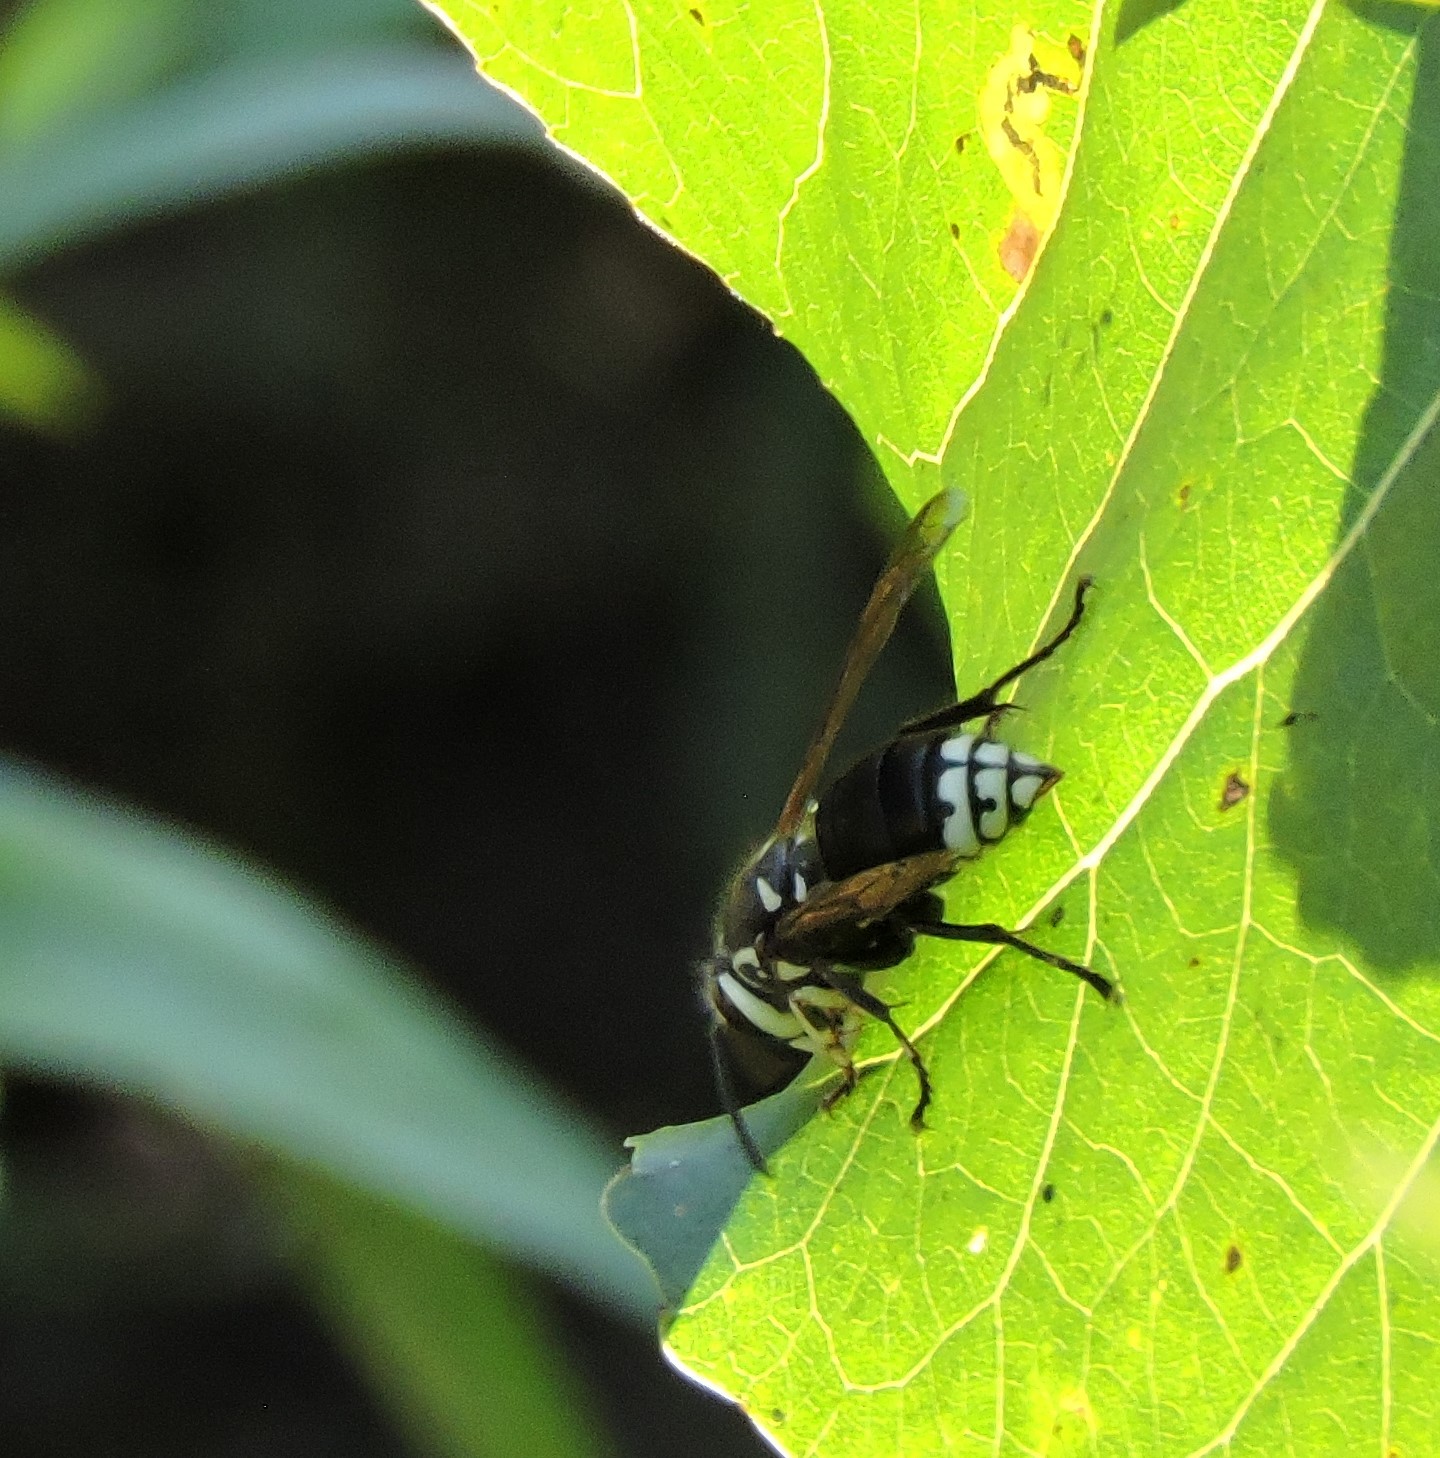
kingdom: Animalia
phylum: Arthropoda
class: Insecta
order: Hymenoptera
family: Vespidae
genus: Dolichovespula
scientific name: Dolichovespula maculata
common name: Bald-faced hornet
